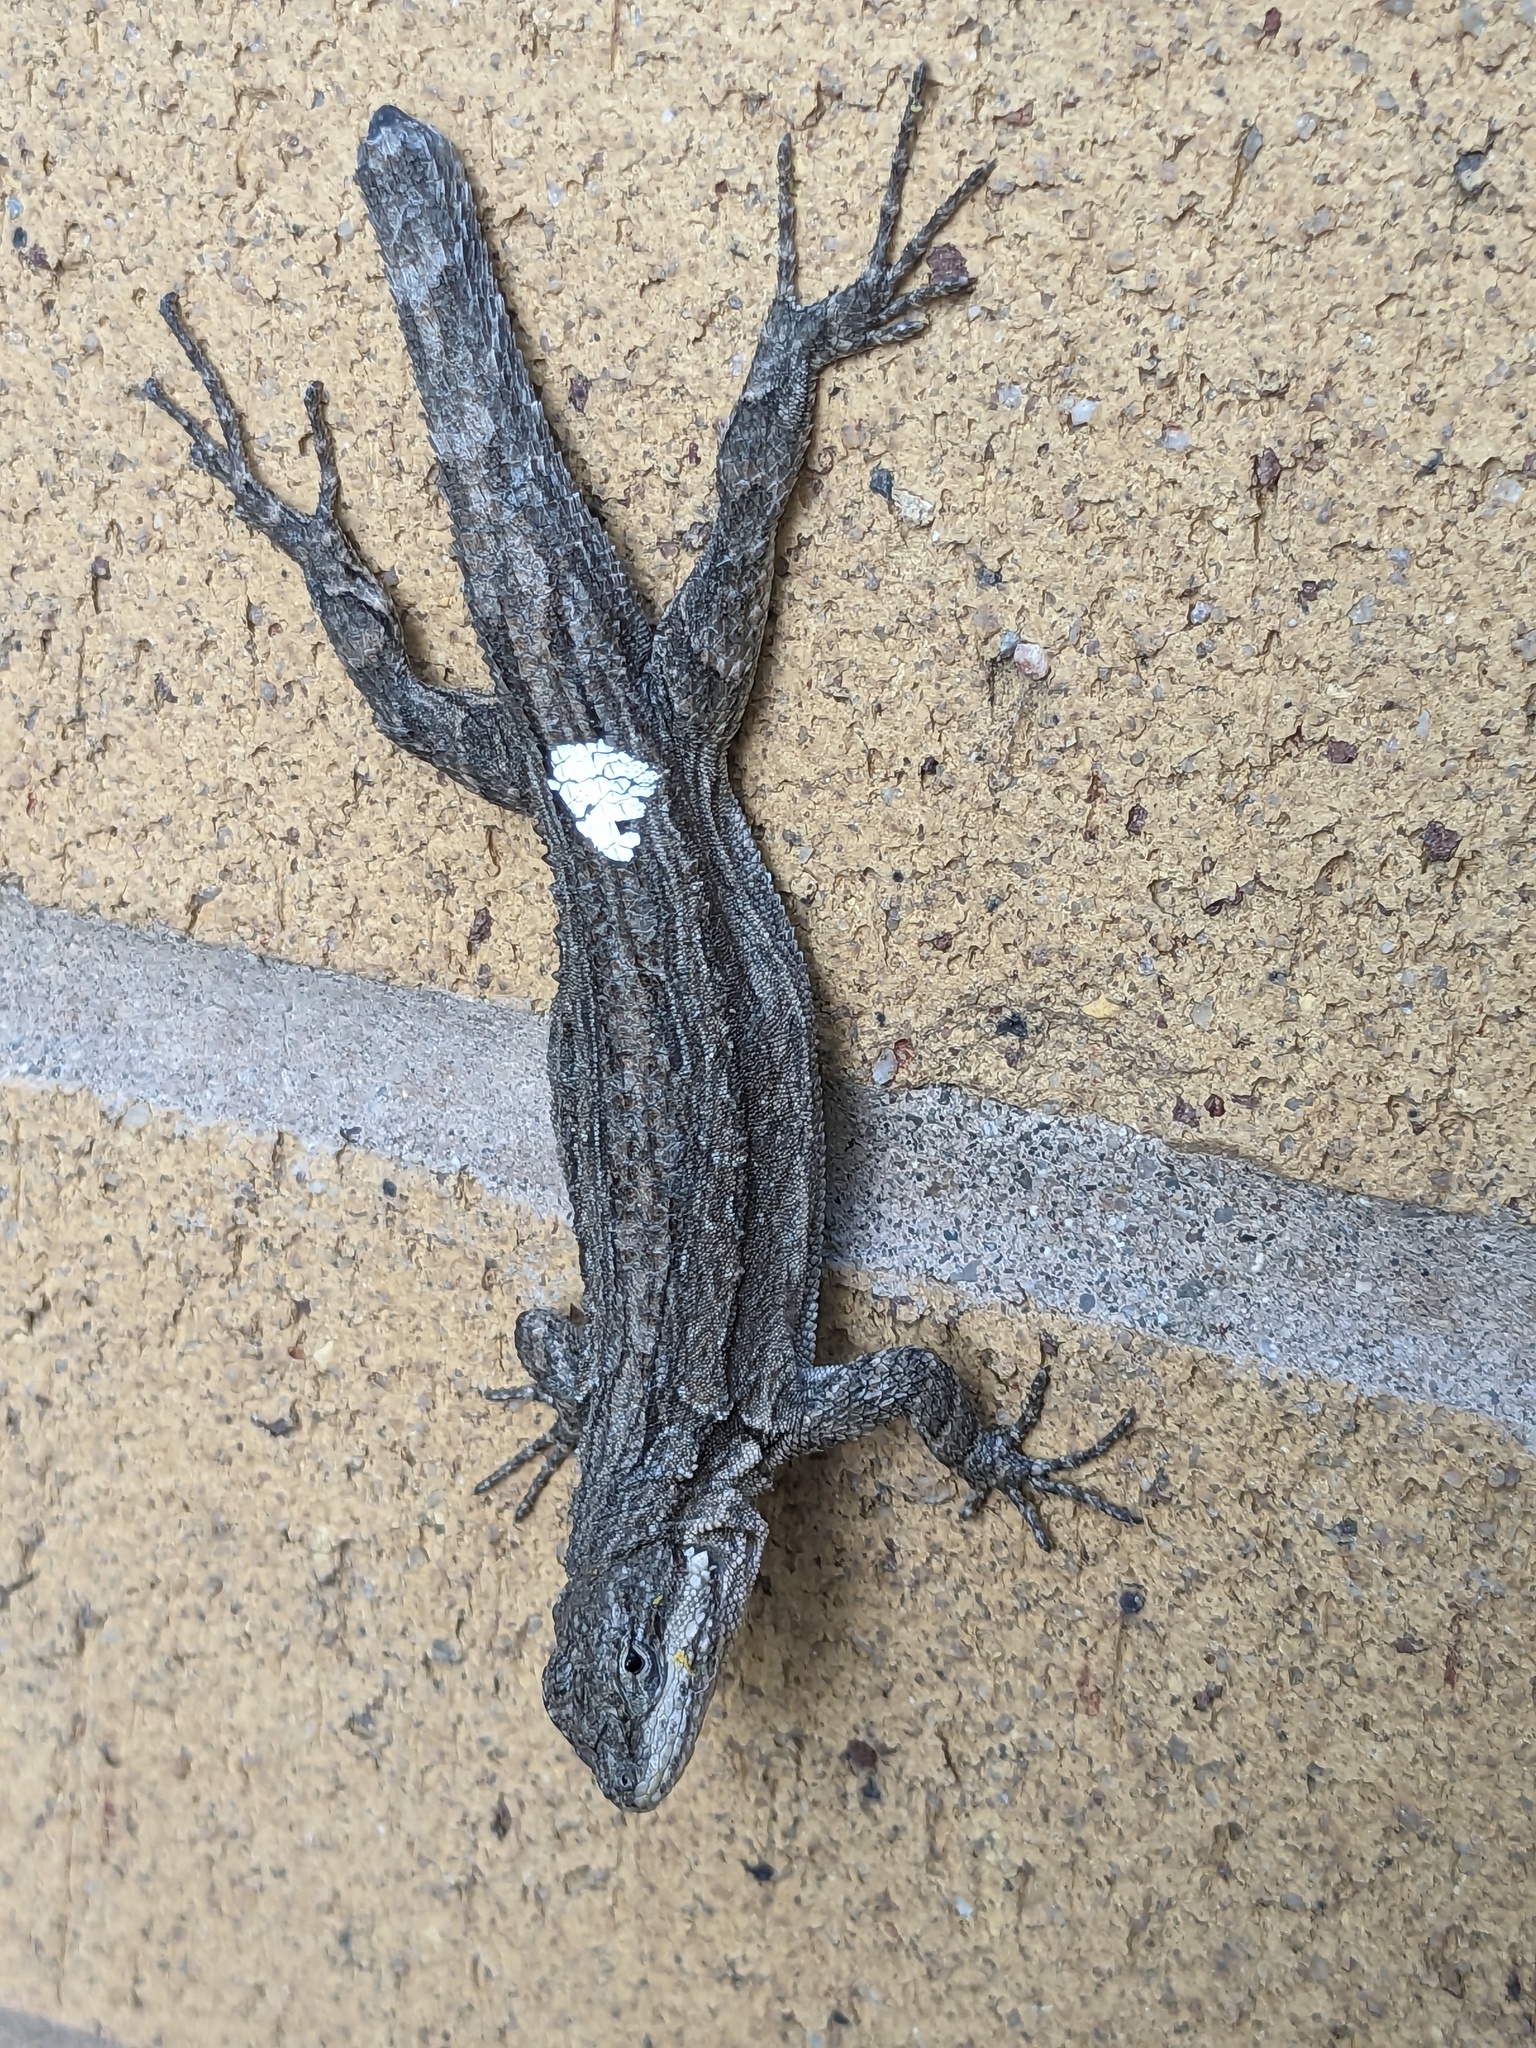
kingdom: Animalia
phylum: Chordata
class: Squamata
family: Phrynosomatidae
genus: Urosaurus
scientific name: Urosaurus ornatus
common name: Ornate tree lizard
